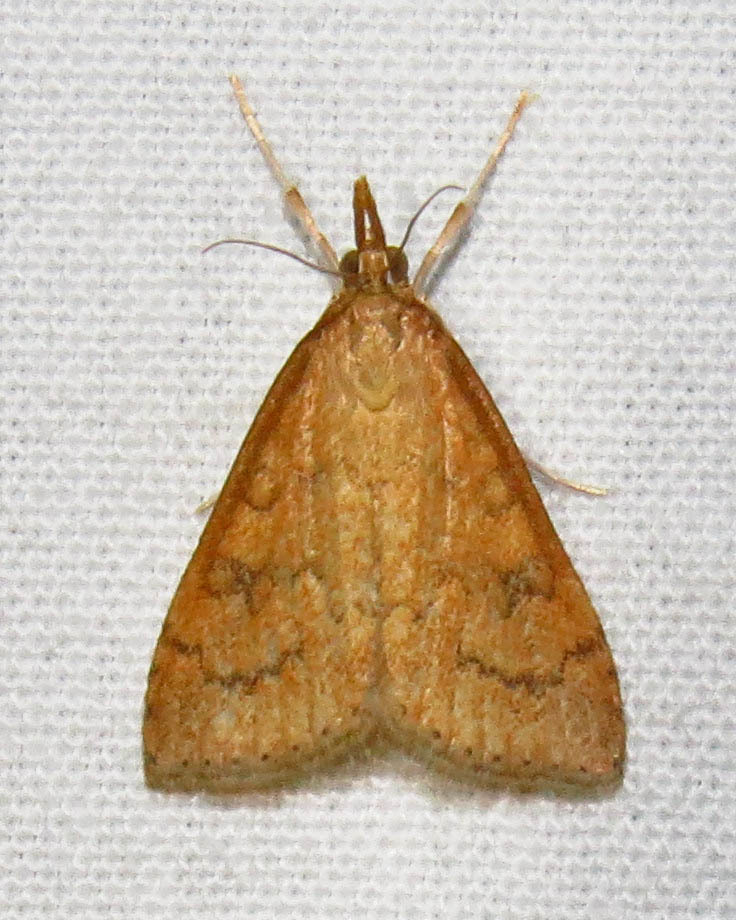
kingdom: Animalia
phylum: Arthropoda
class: Insecta
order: Lepidoptera
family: Crambidae
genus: Udea
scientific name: Udea rubigalis
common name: Celery leaftier moth
